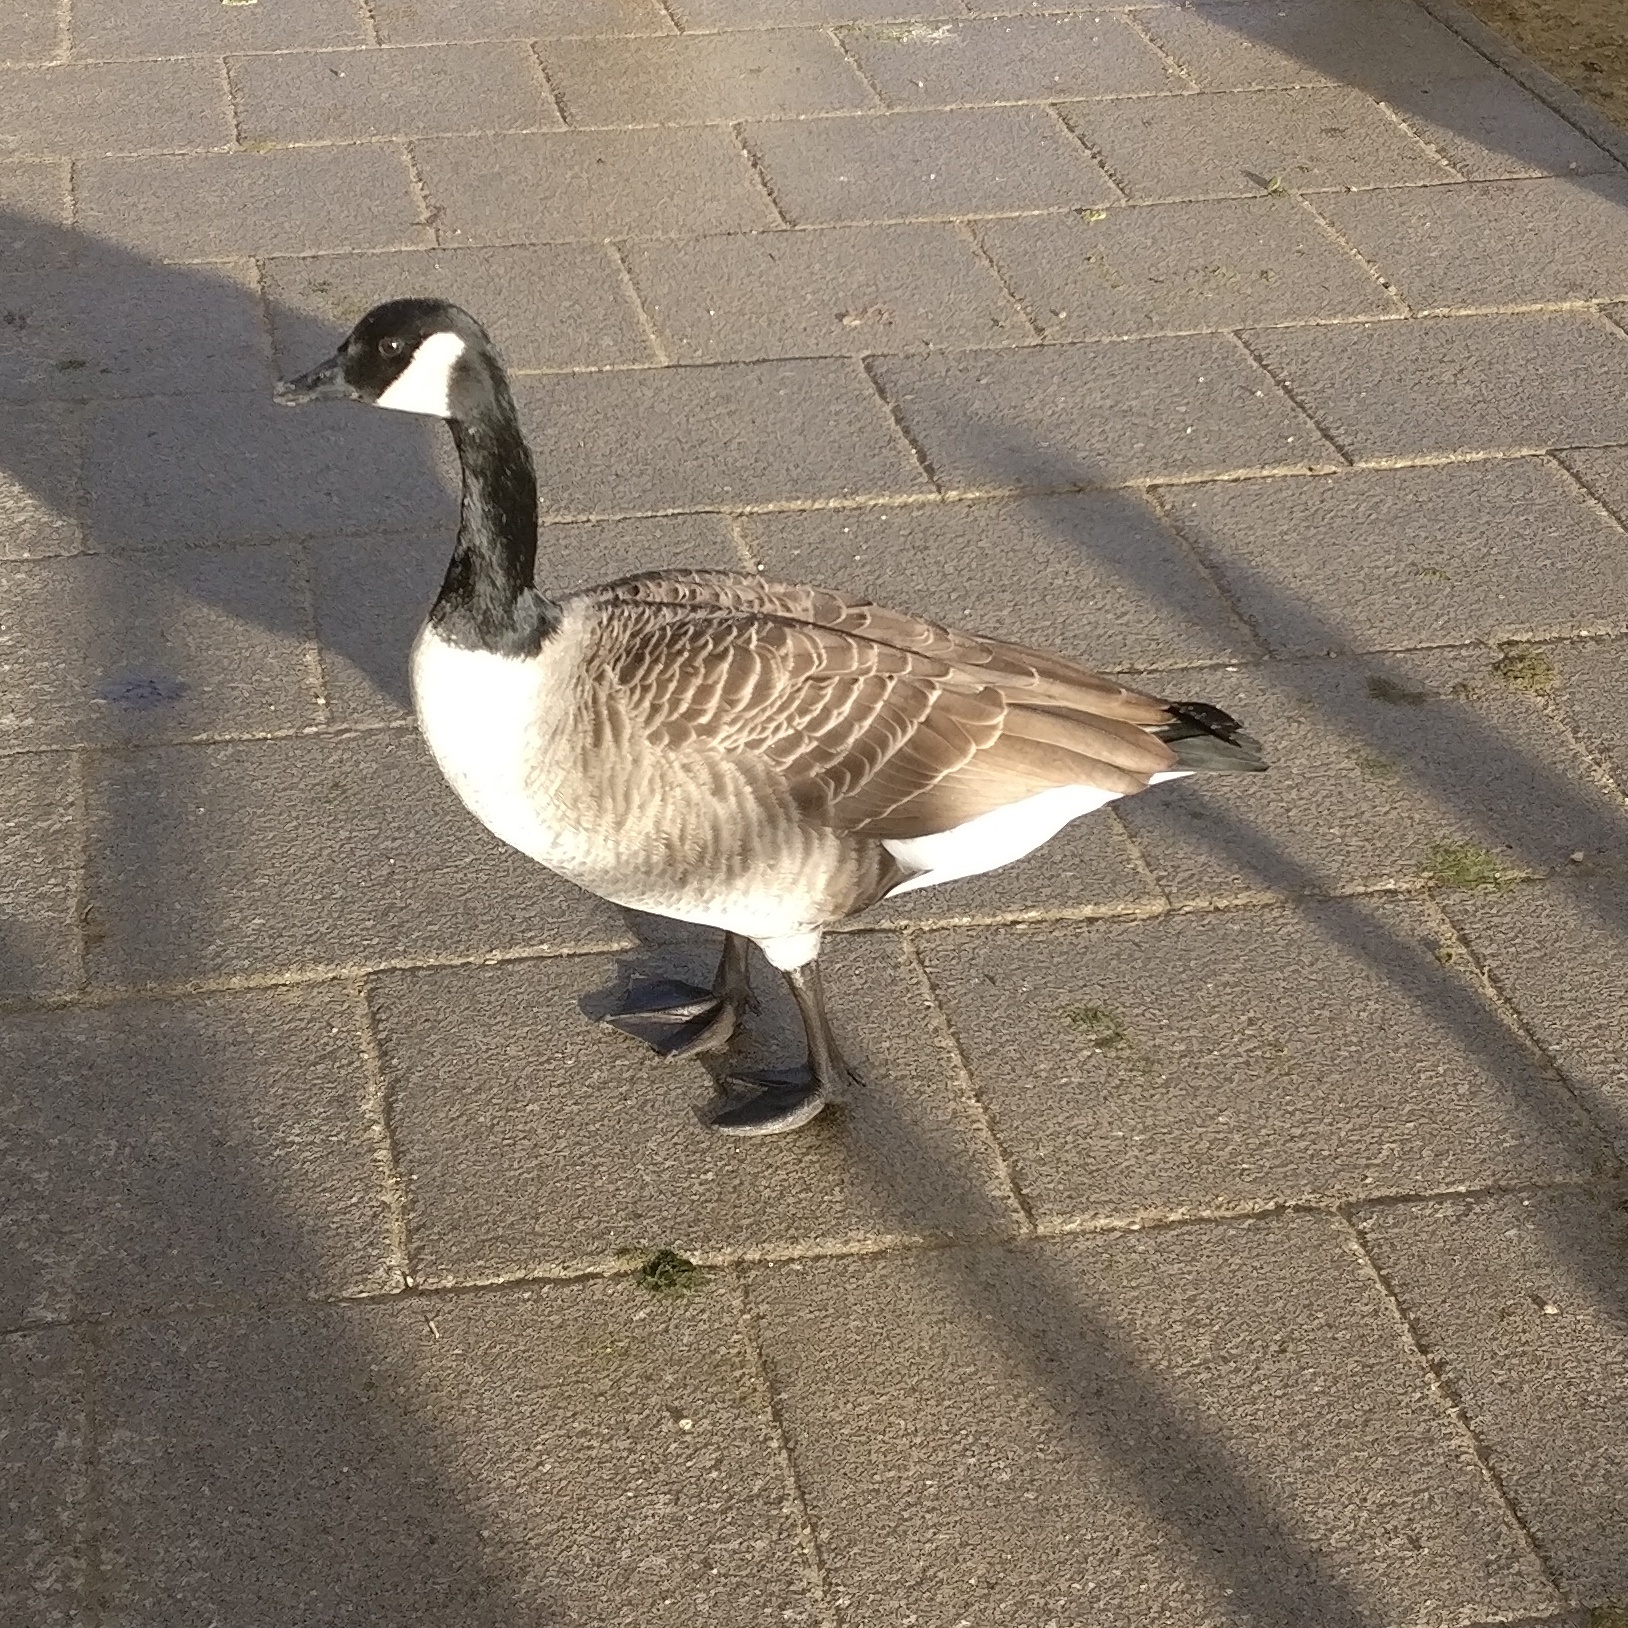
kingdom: Animalia
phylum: Chordata
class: Aves
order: Anseriformes
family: Anatidae
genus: Branta
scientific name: Branta canadensis
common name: Canada goose
